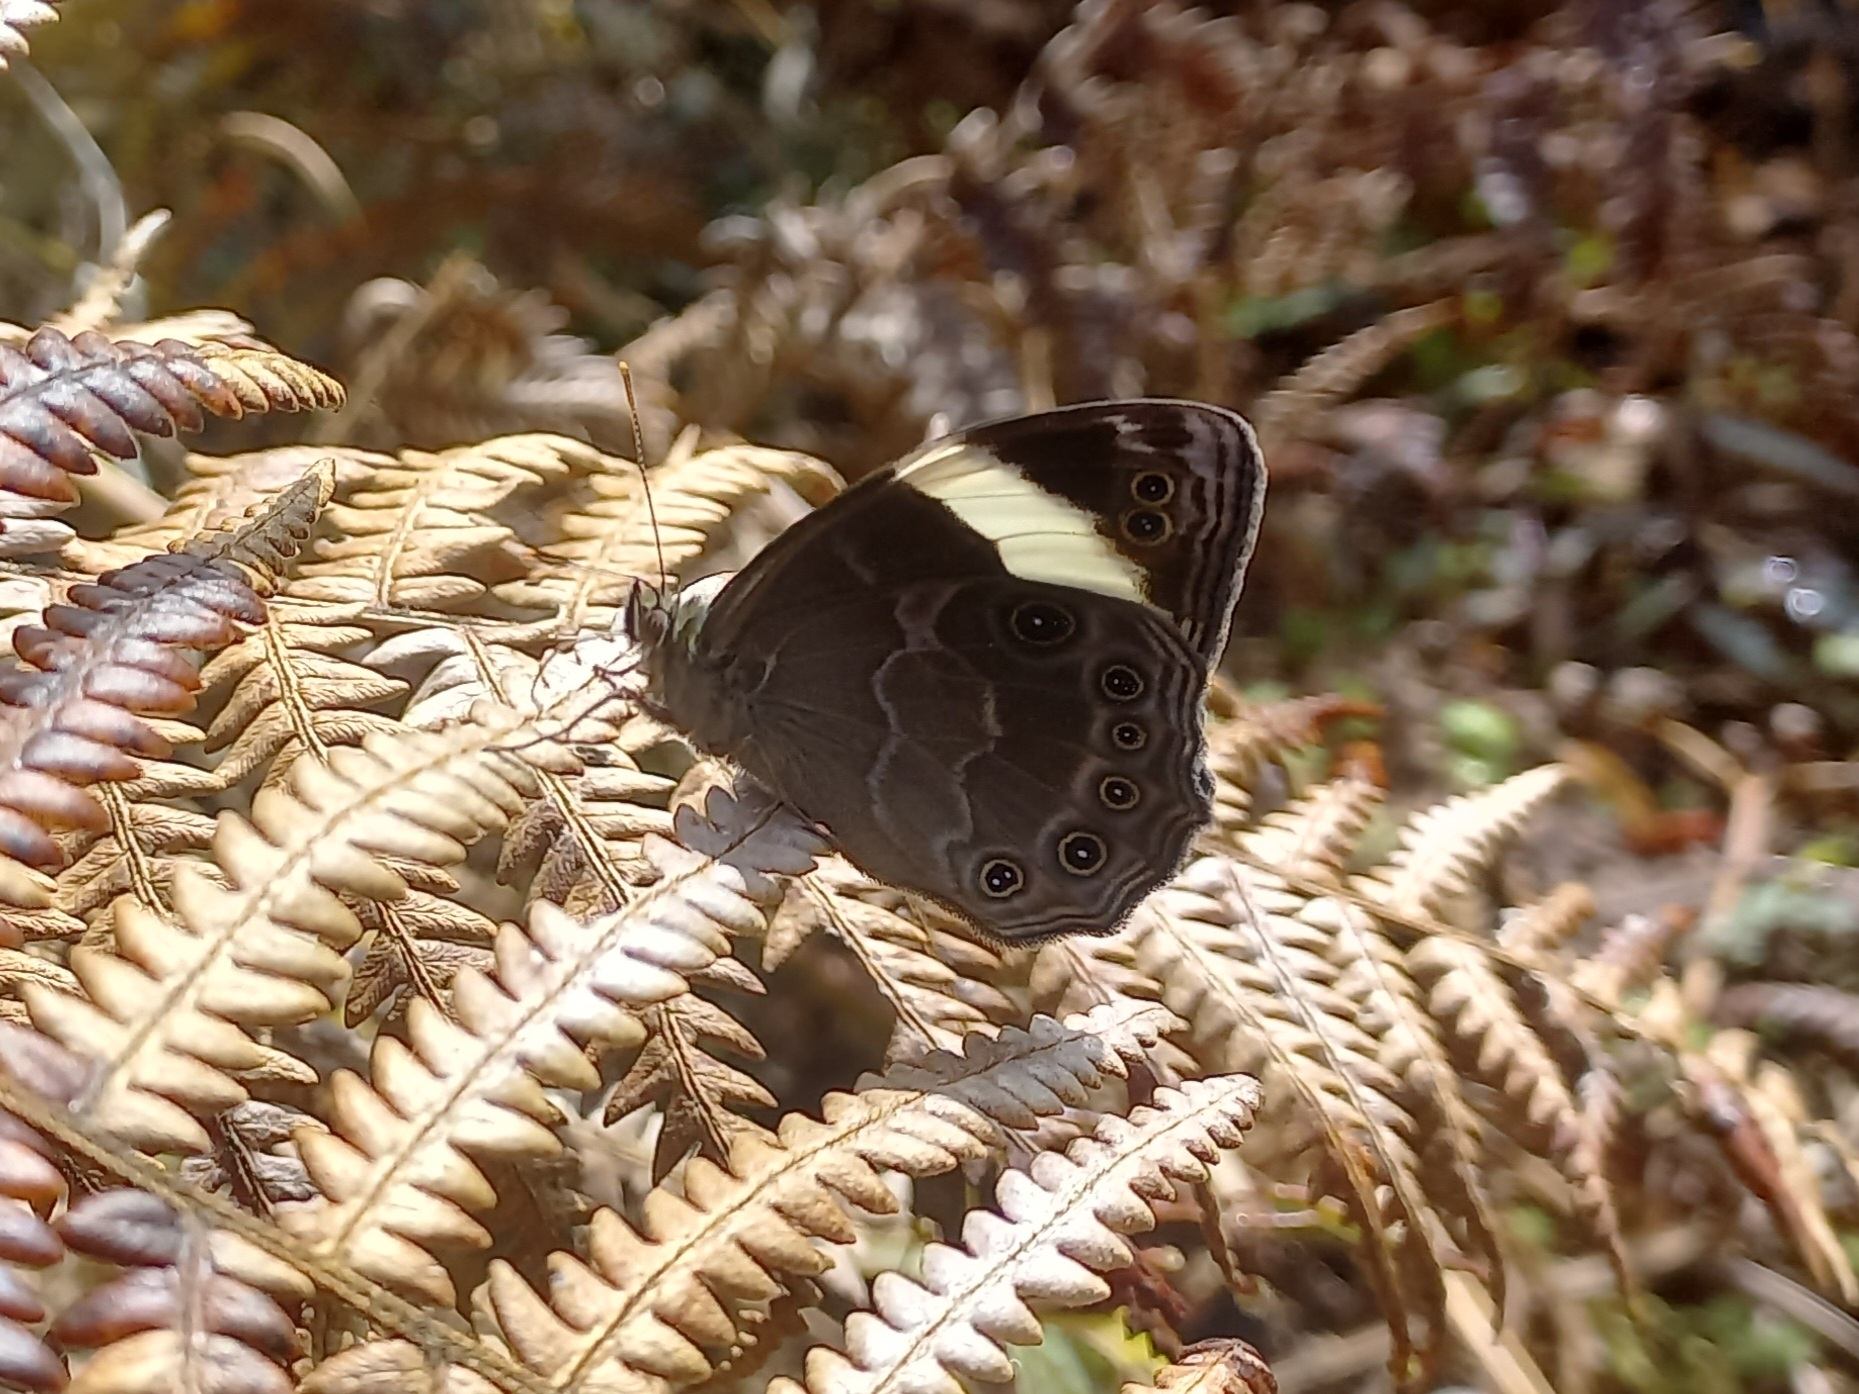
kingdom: Animalia
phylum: Arthropoda
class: Insecta
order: Lepidoptera
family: Nymphalidae
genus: Lethe
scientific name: Lethe verma
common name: Straight-banded treebrown
